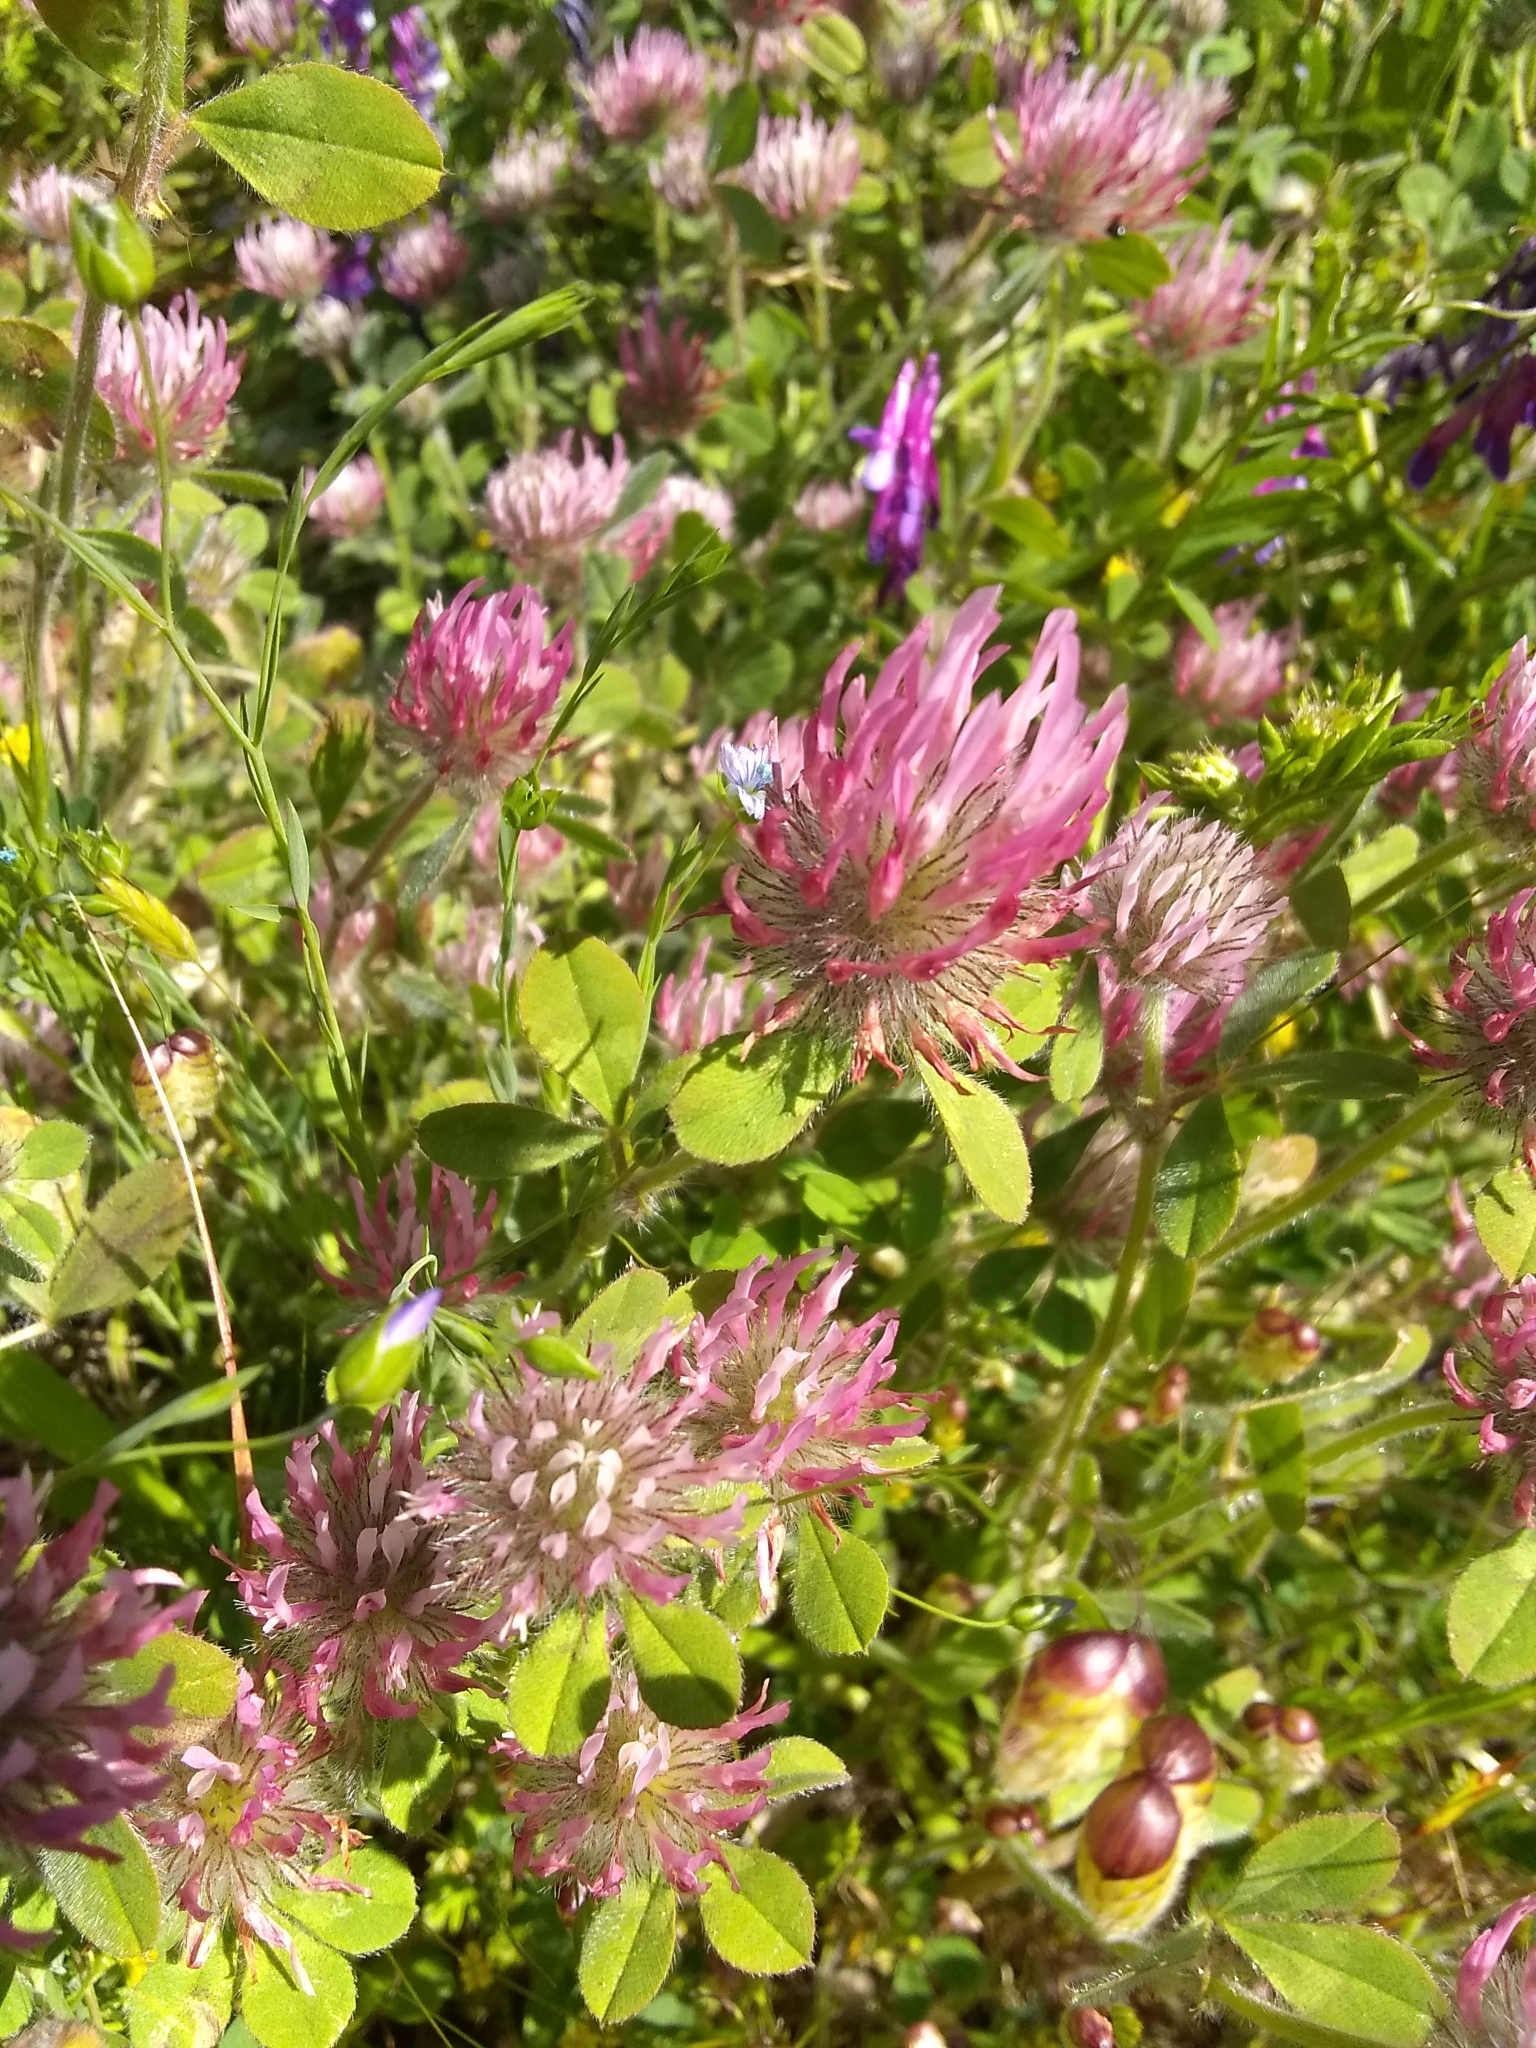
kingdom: Plantae
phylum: Tracheophyta
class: Magnoliopsida
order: Fabales
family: Fabaceae
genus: Trifolium
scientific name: Trifolium hirtum
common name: Rose clover
